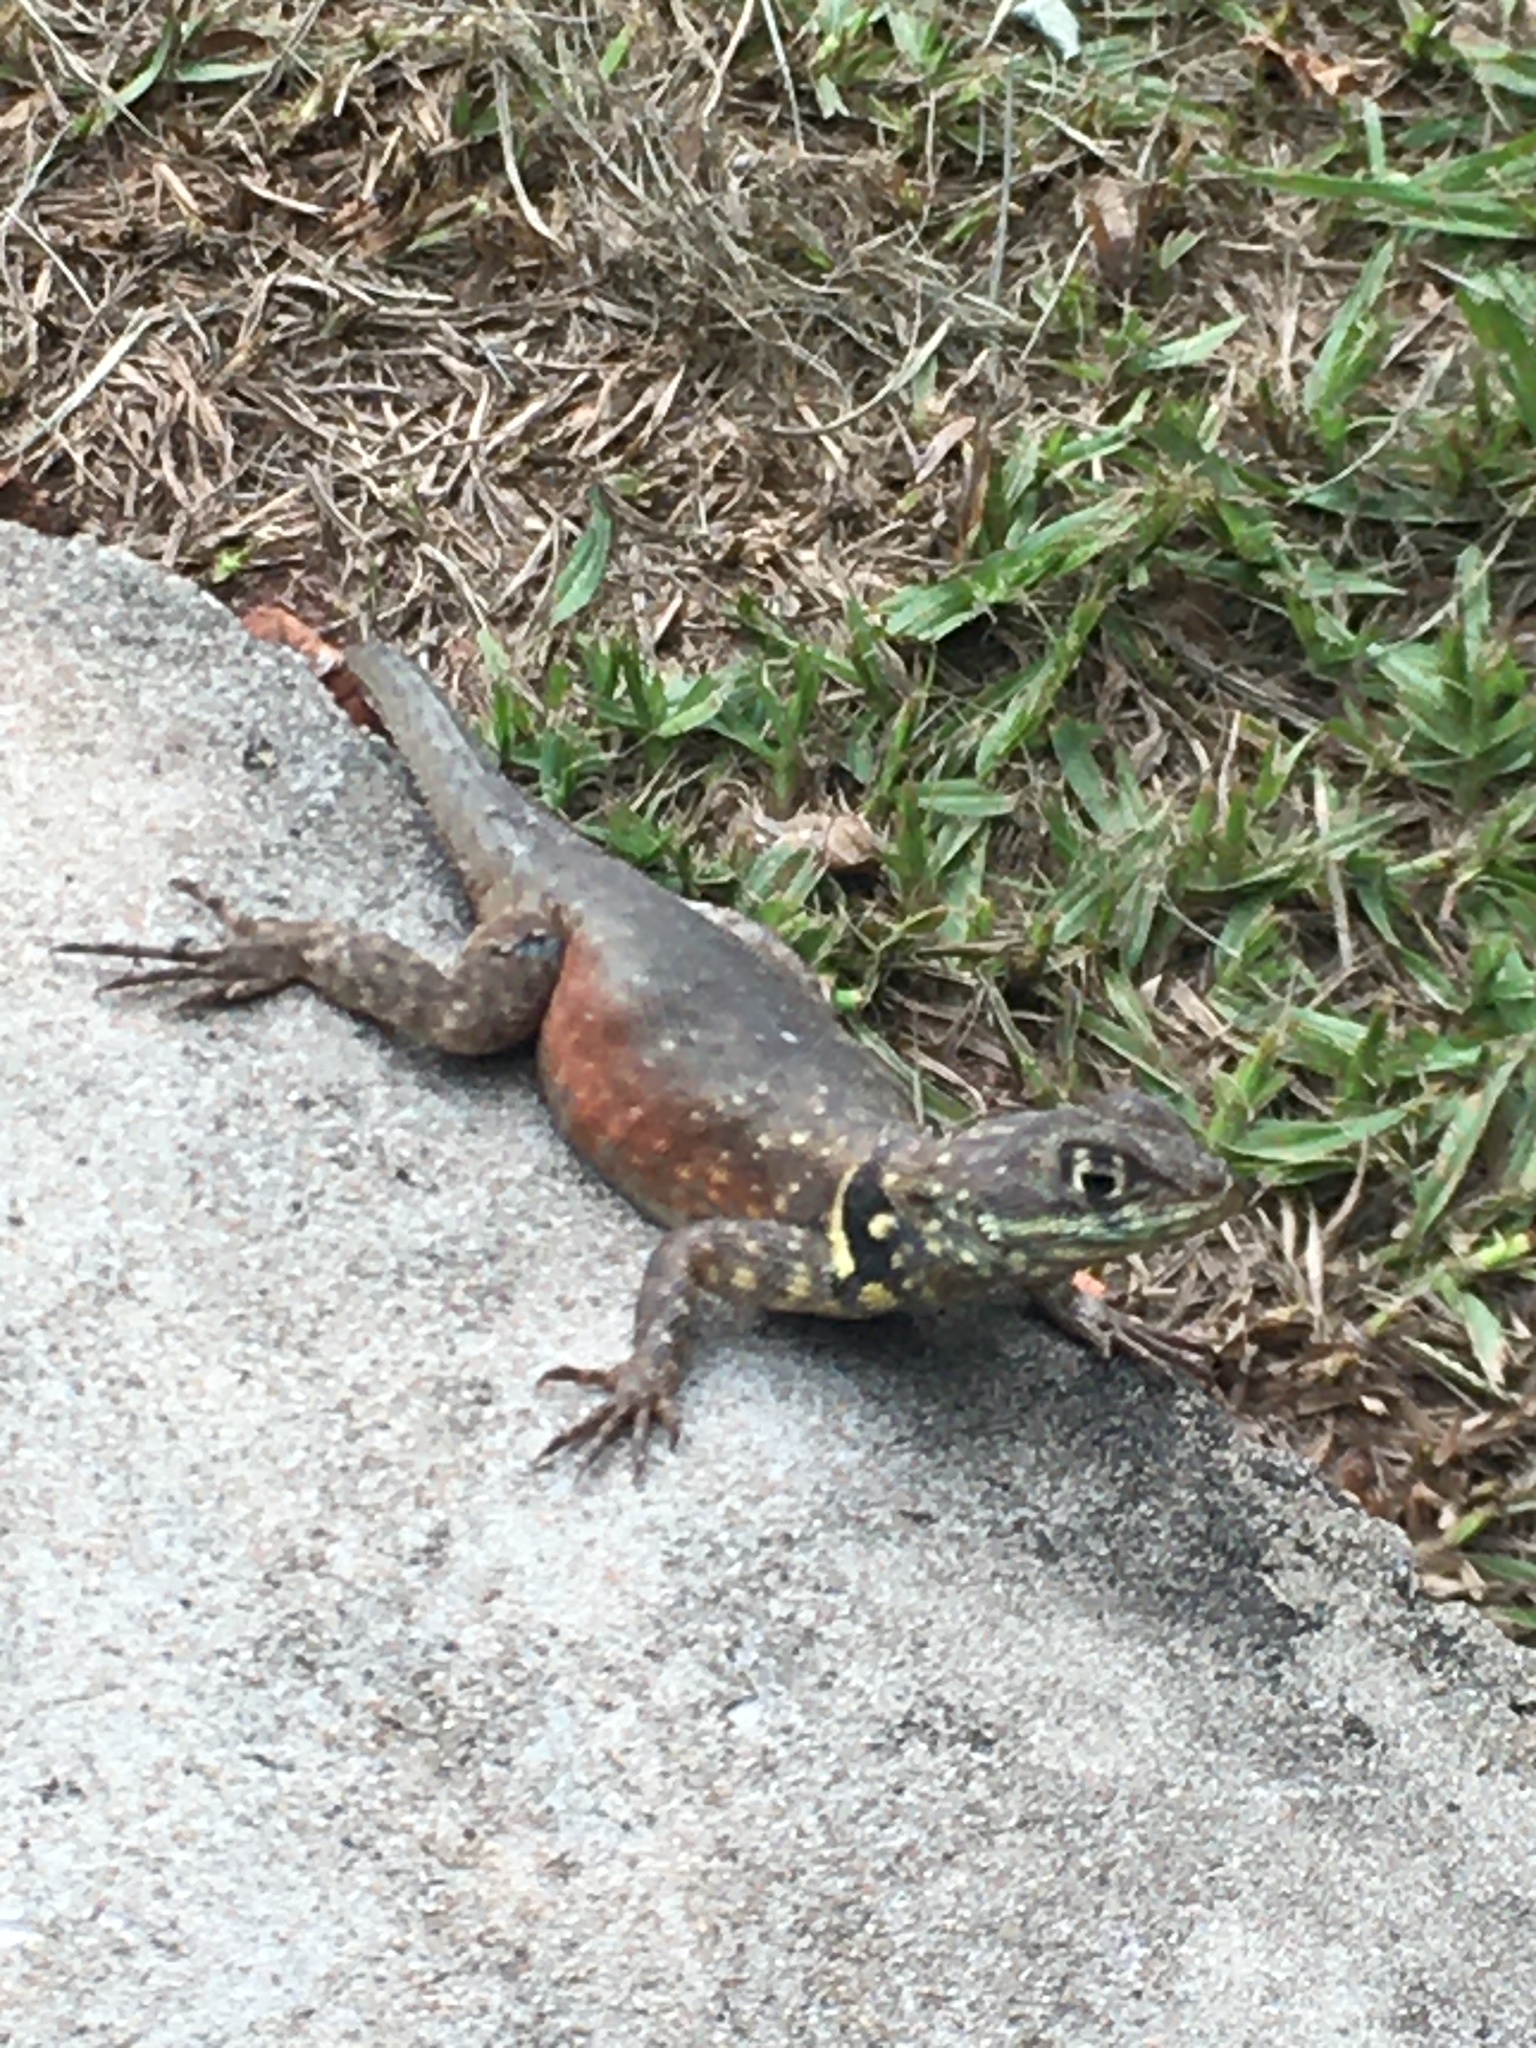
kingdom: Animalia
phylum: Chordata
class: Squamata
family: Tropiduridae
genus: Tropidurus
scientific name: Tropidurus oreadicus
